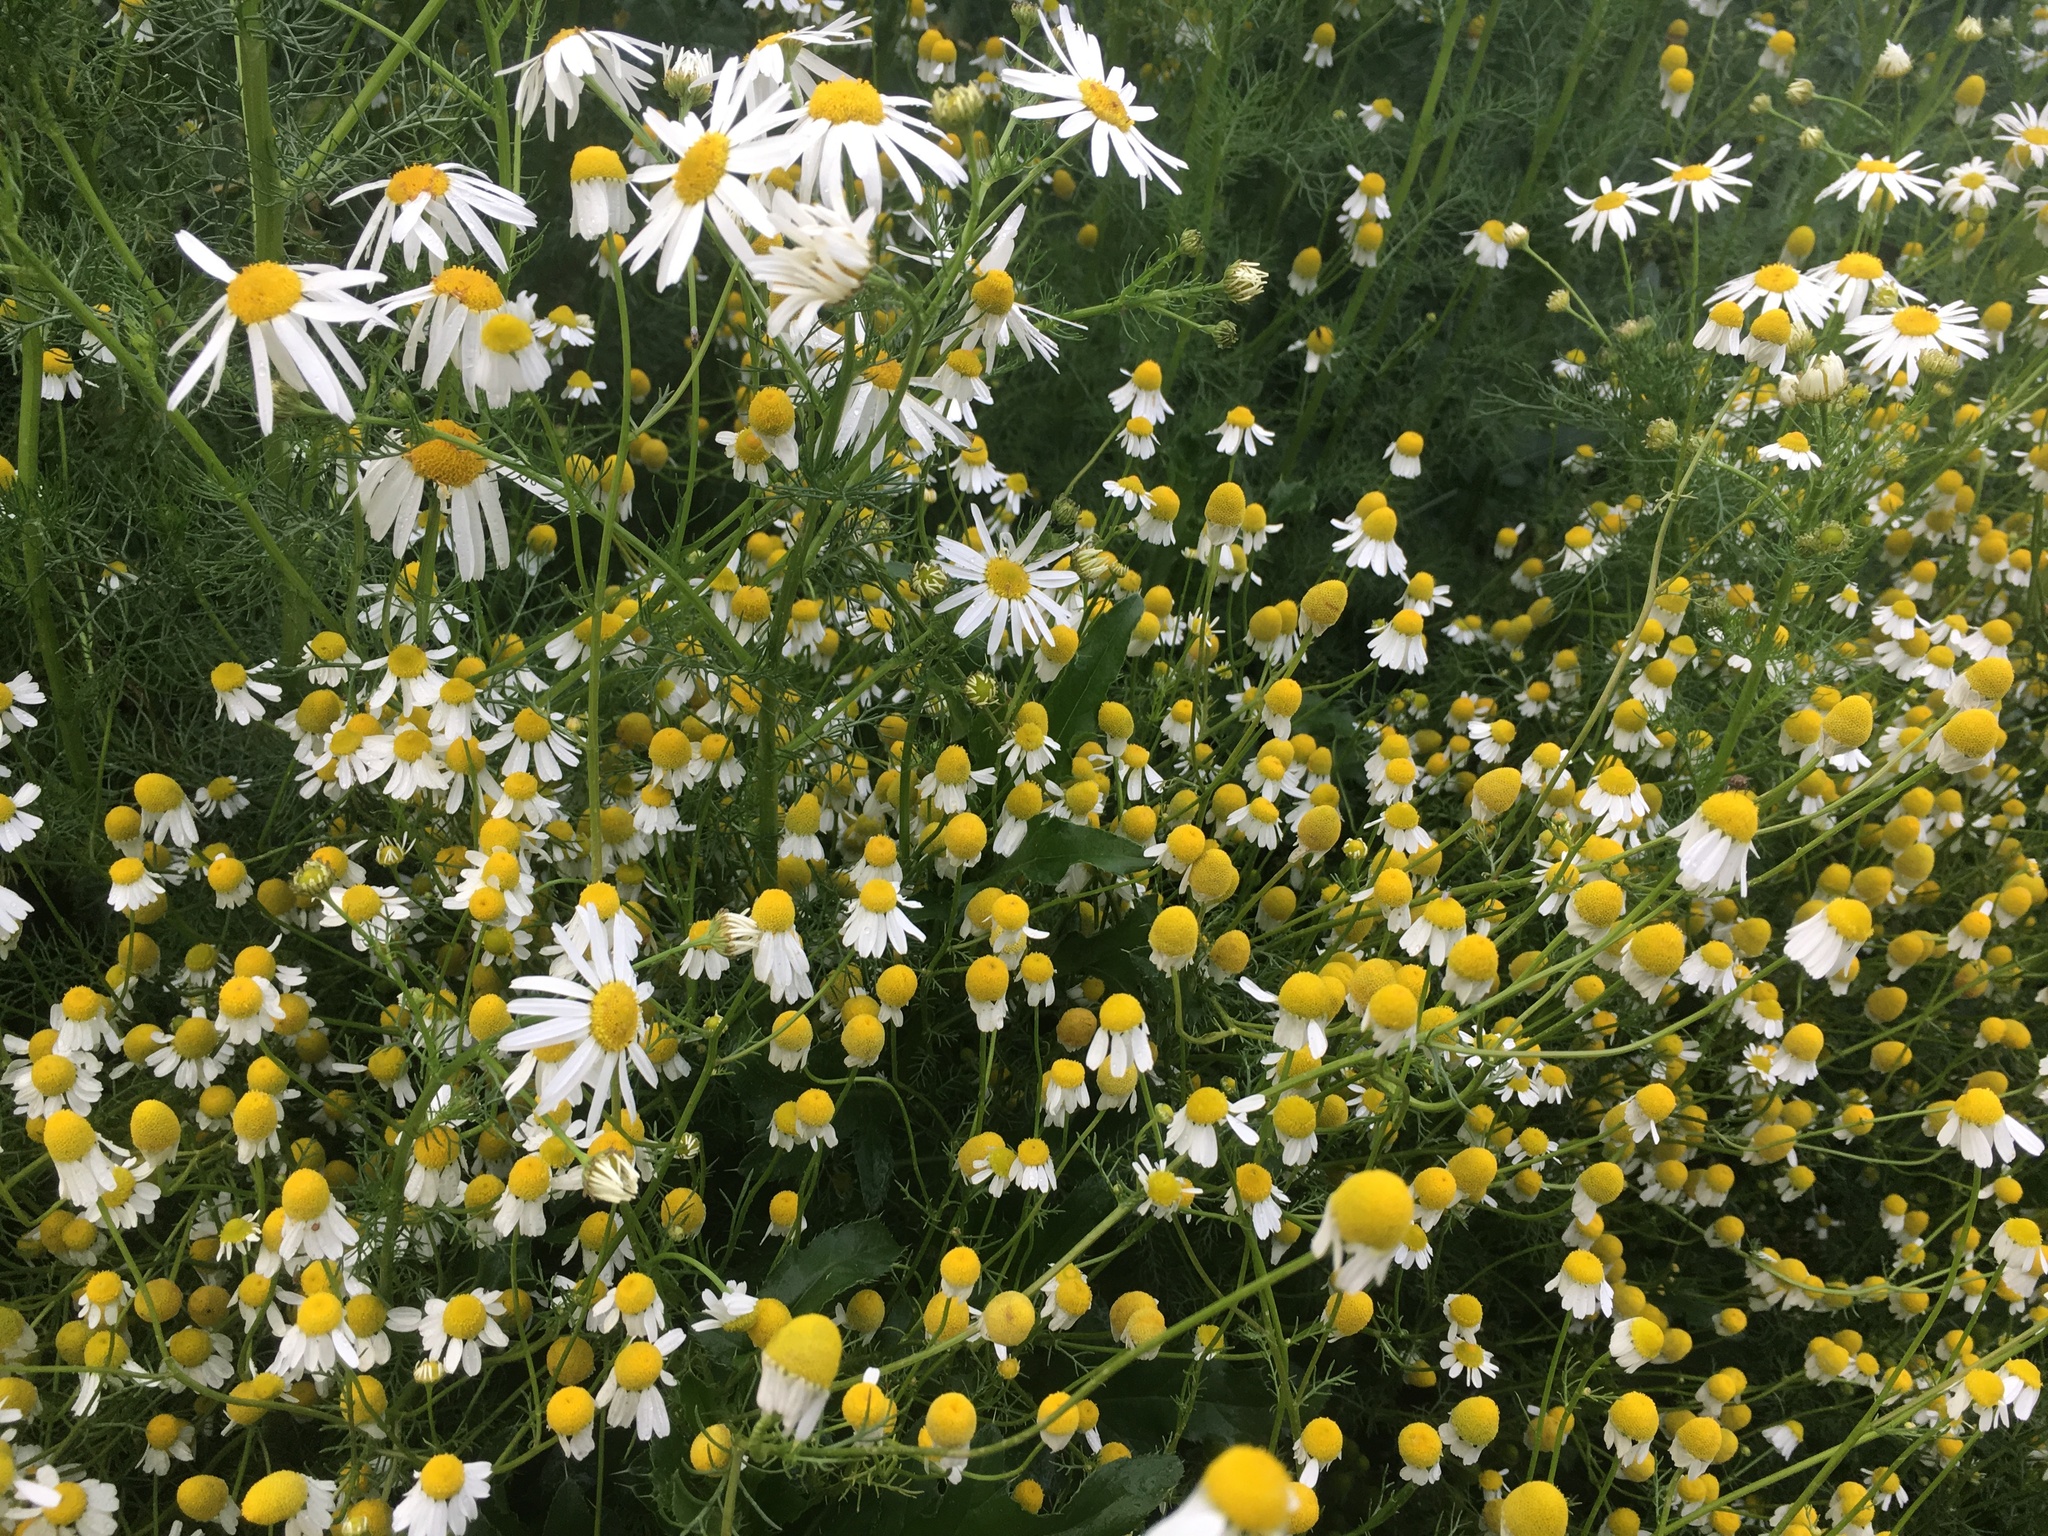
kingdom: Plantae
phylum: Tracheophyta
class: Magnoliopsida
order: Asterales
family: Asteraceae
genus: Matricaria
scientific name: Matricaria chamomilla
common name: Scented mayweed
